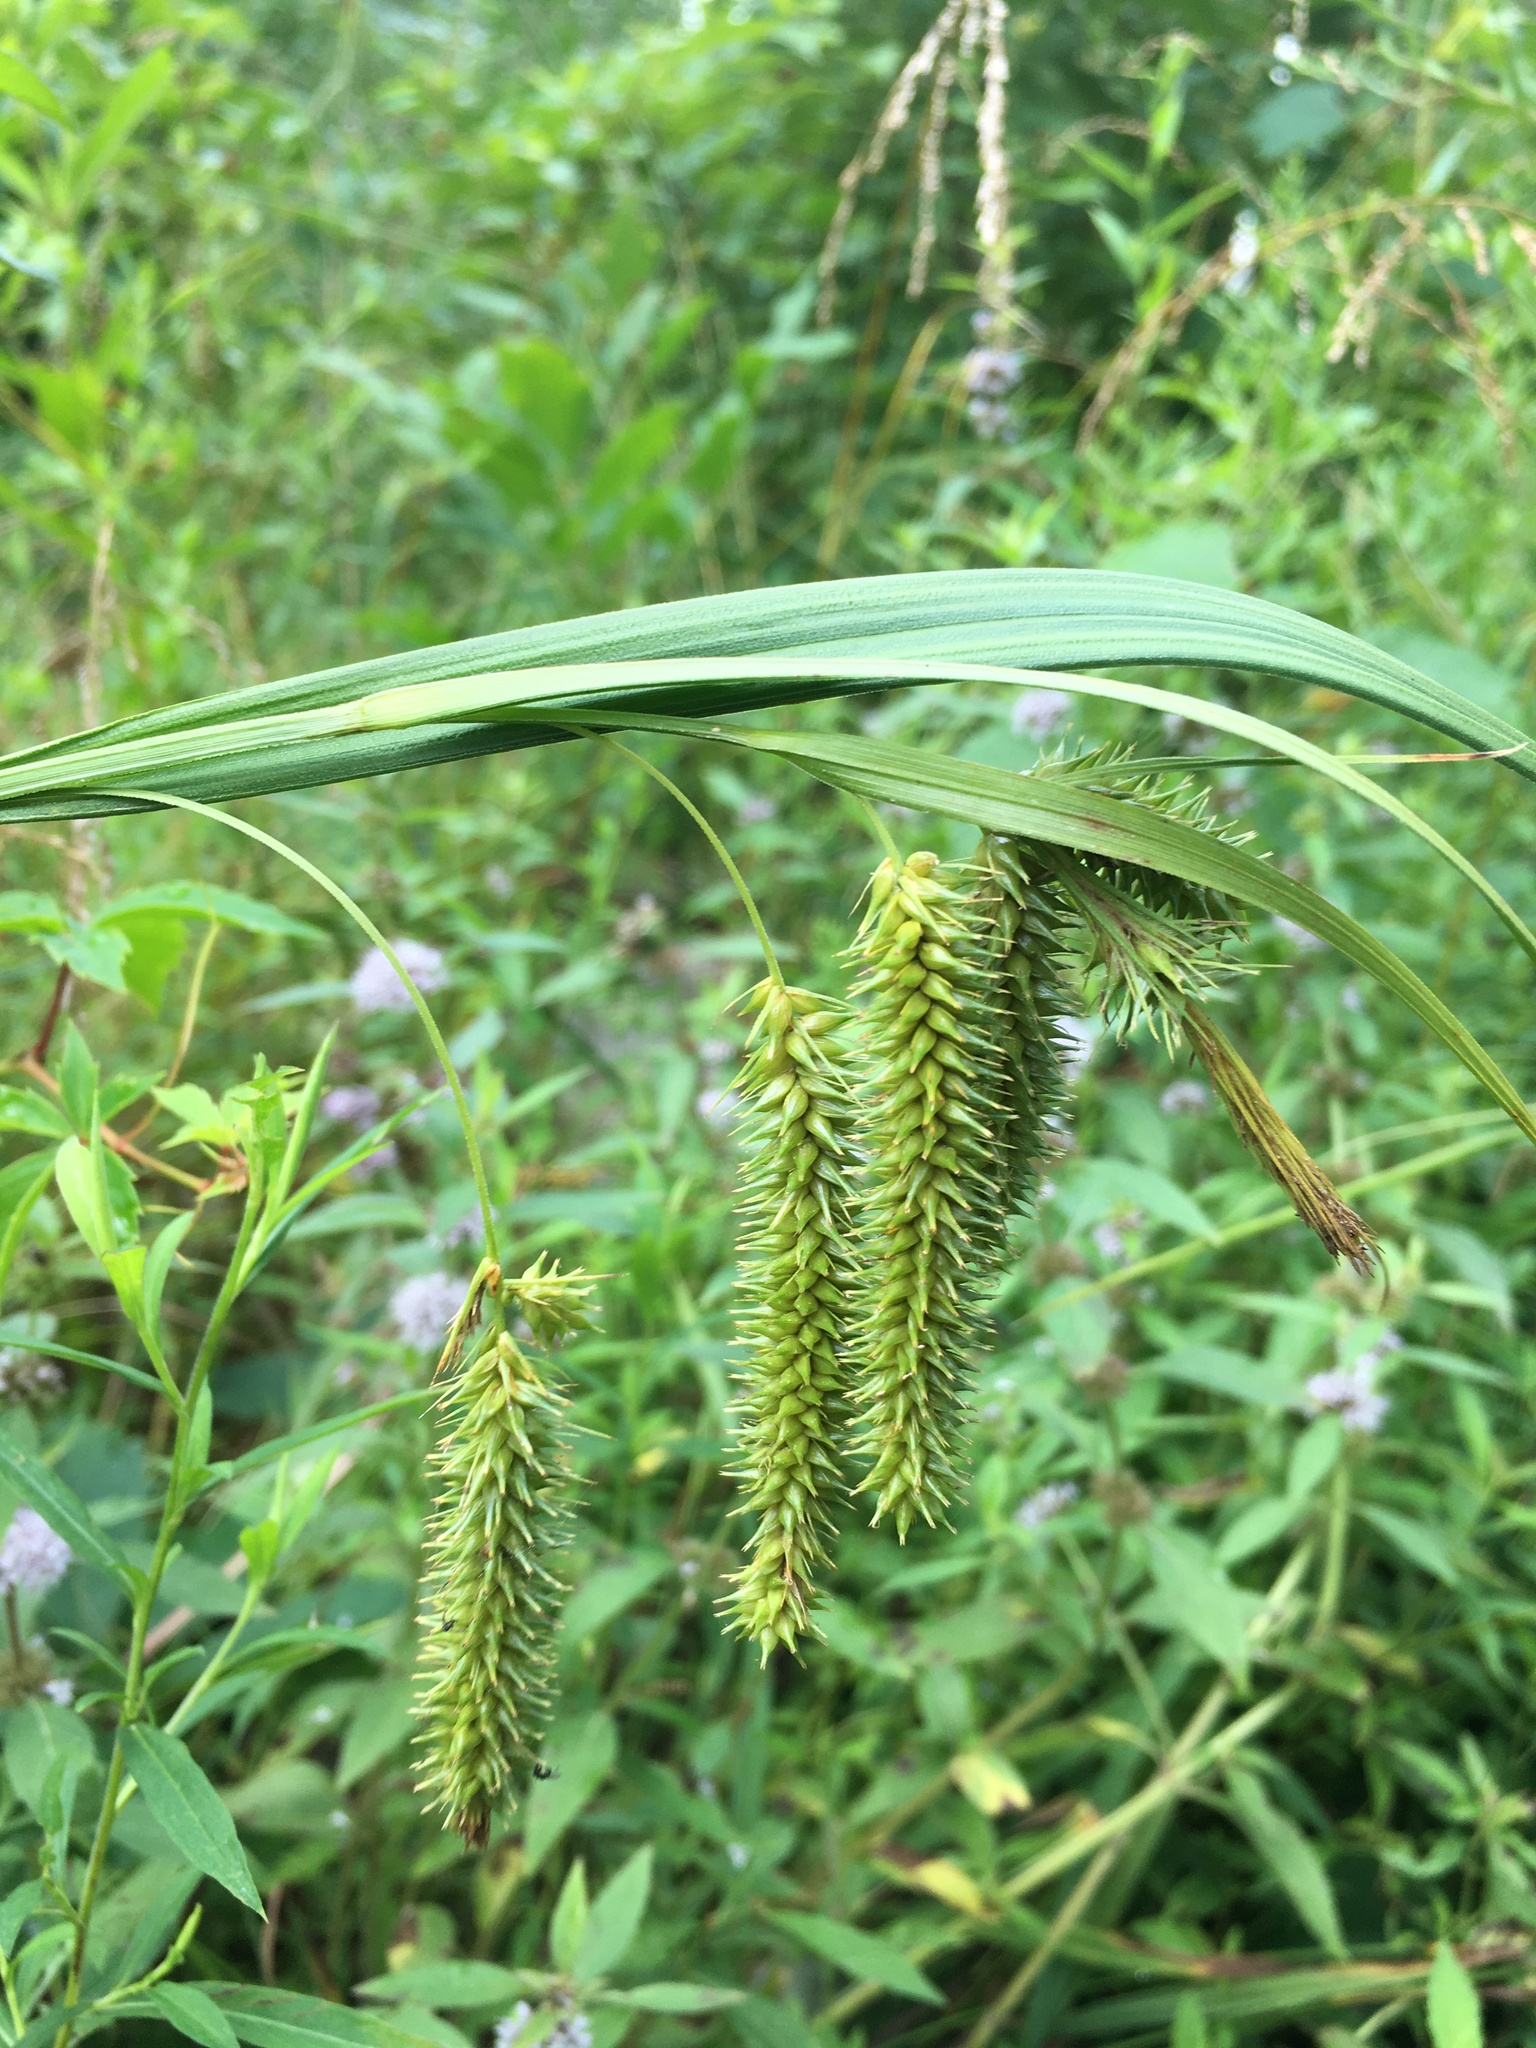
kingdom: Plantae
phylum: Tracheophyta
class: Liliopsida
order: Poales
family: Cyperaceae
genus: Carex
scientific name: Carex pseudocyperus
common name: Cyperus sedge
